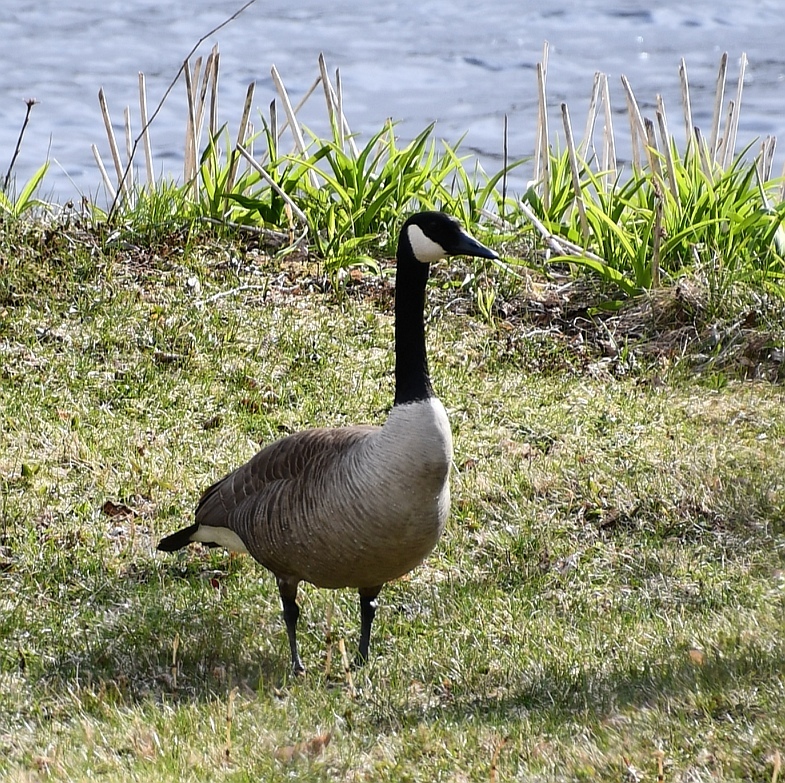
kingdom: Animalia
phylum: Chordata
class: Aves
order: Anseriformes
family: Anatidae
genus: Branta
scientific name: Branta canadensis
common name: Canada goose
